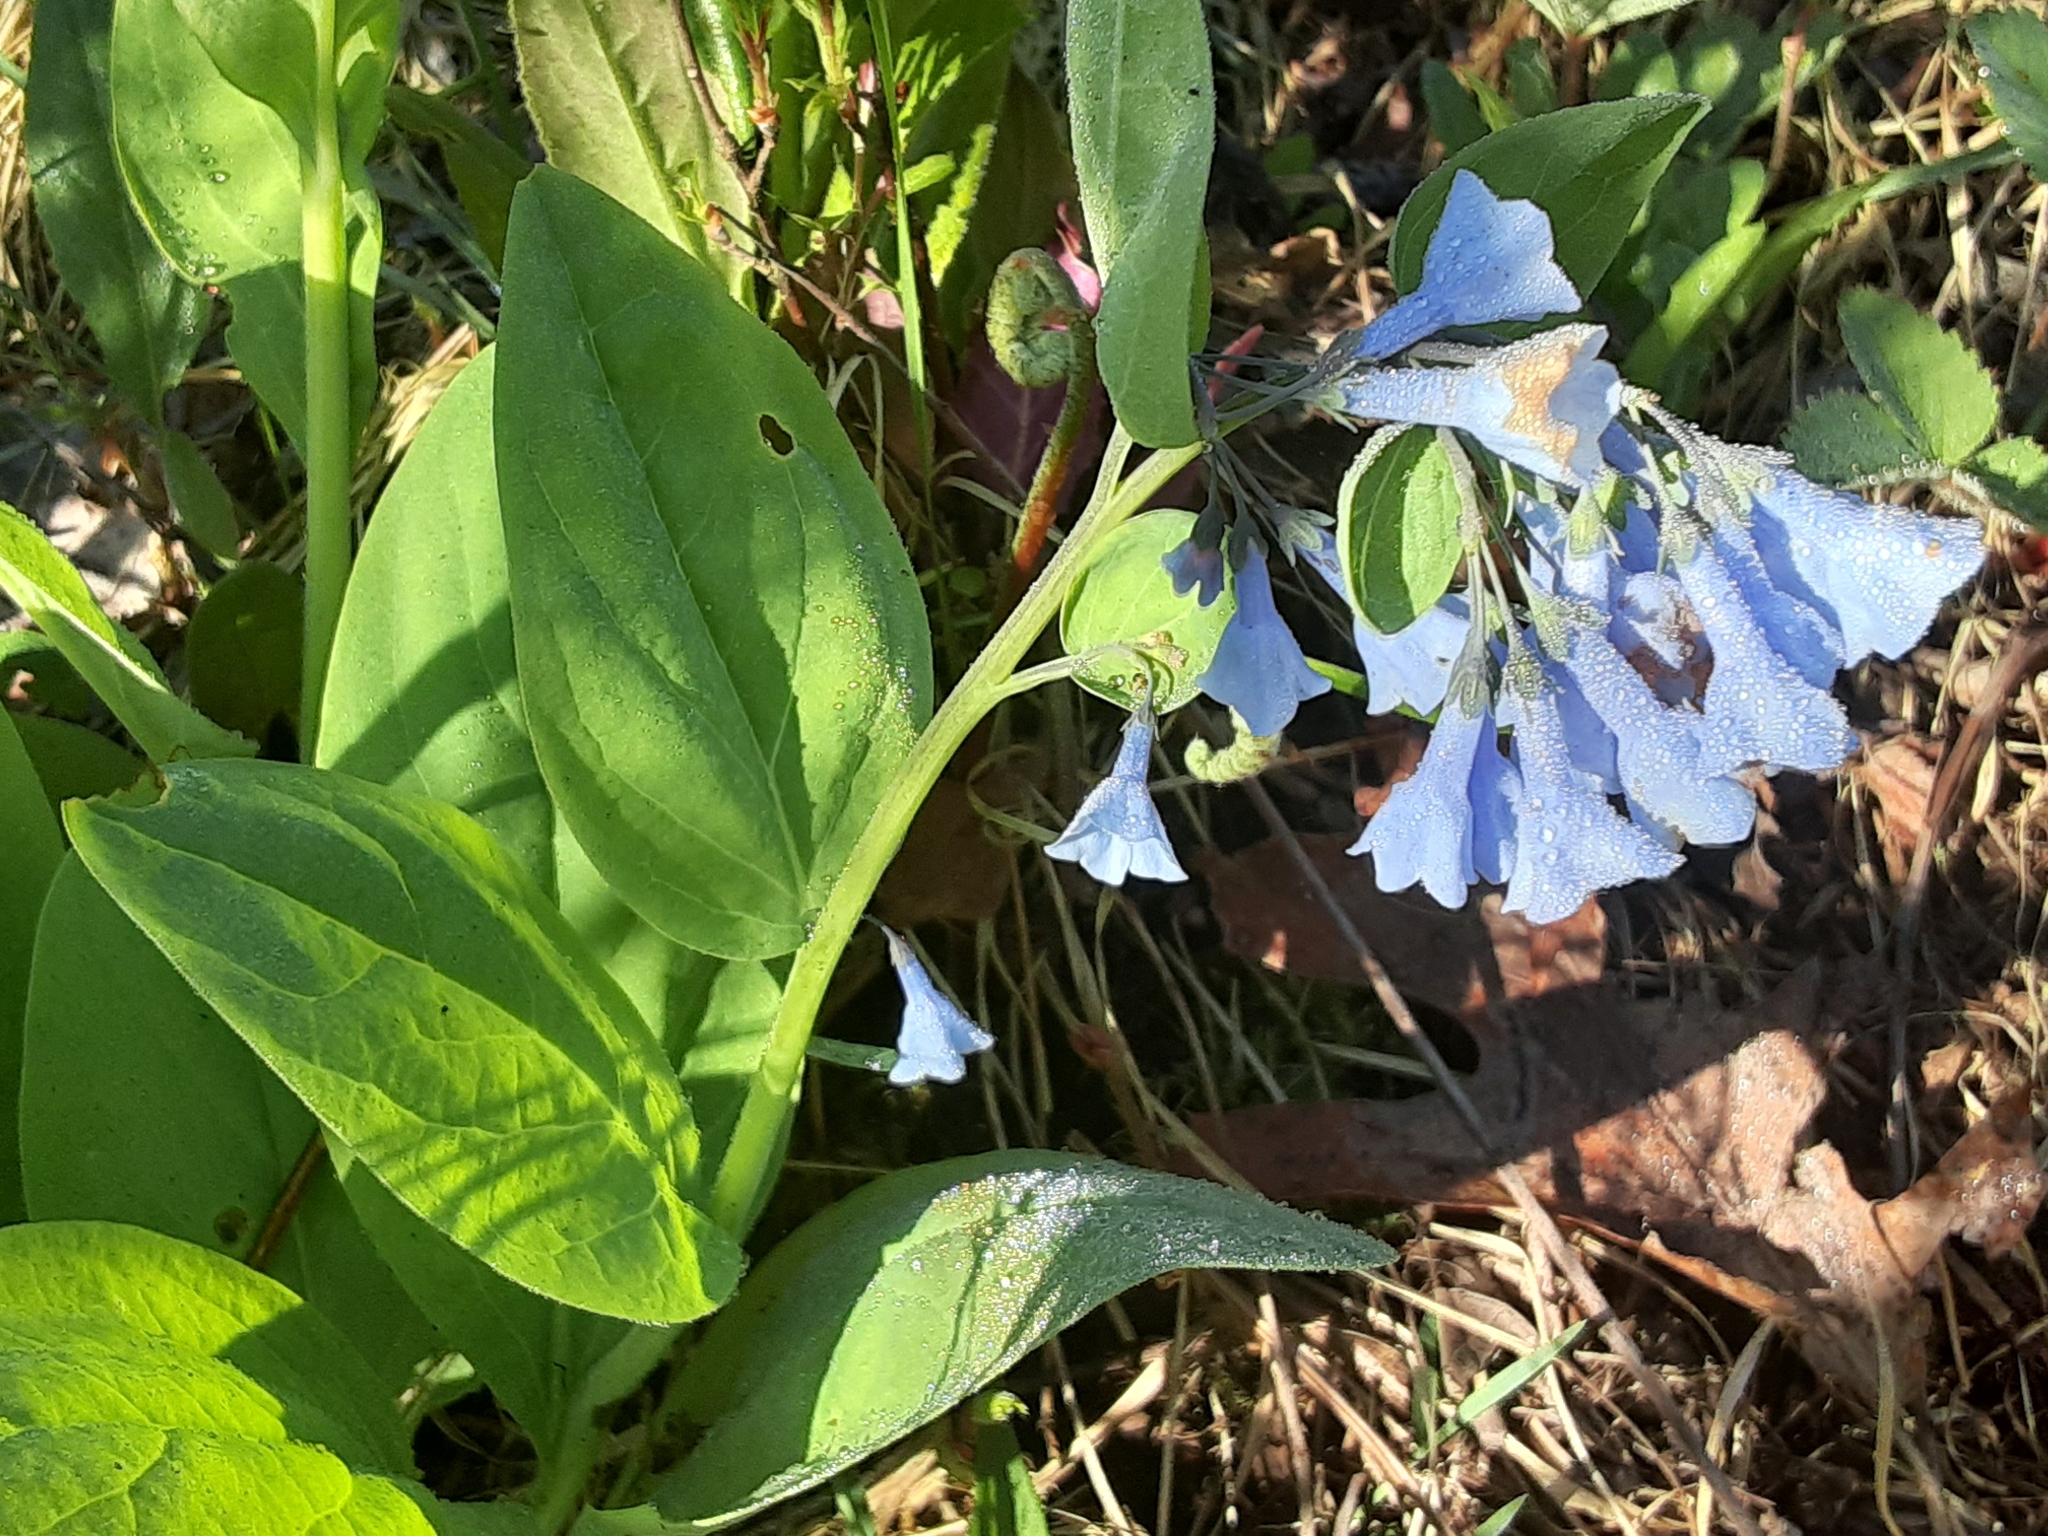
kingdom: Plantae
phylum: Tracheophyta
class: Magnoliopsida
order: Boraginales
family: Boraginaceae
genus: Mertensia
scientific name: Mertensia virginica
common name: Virginia bluebells
